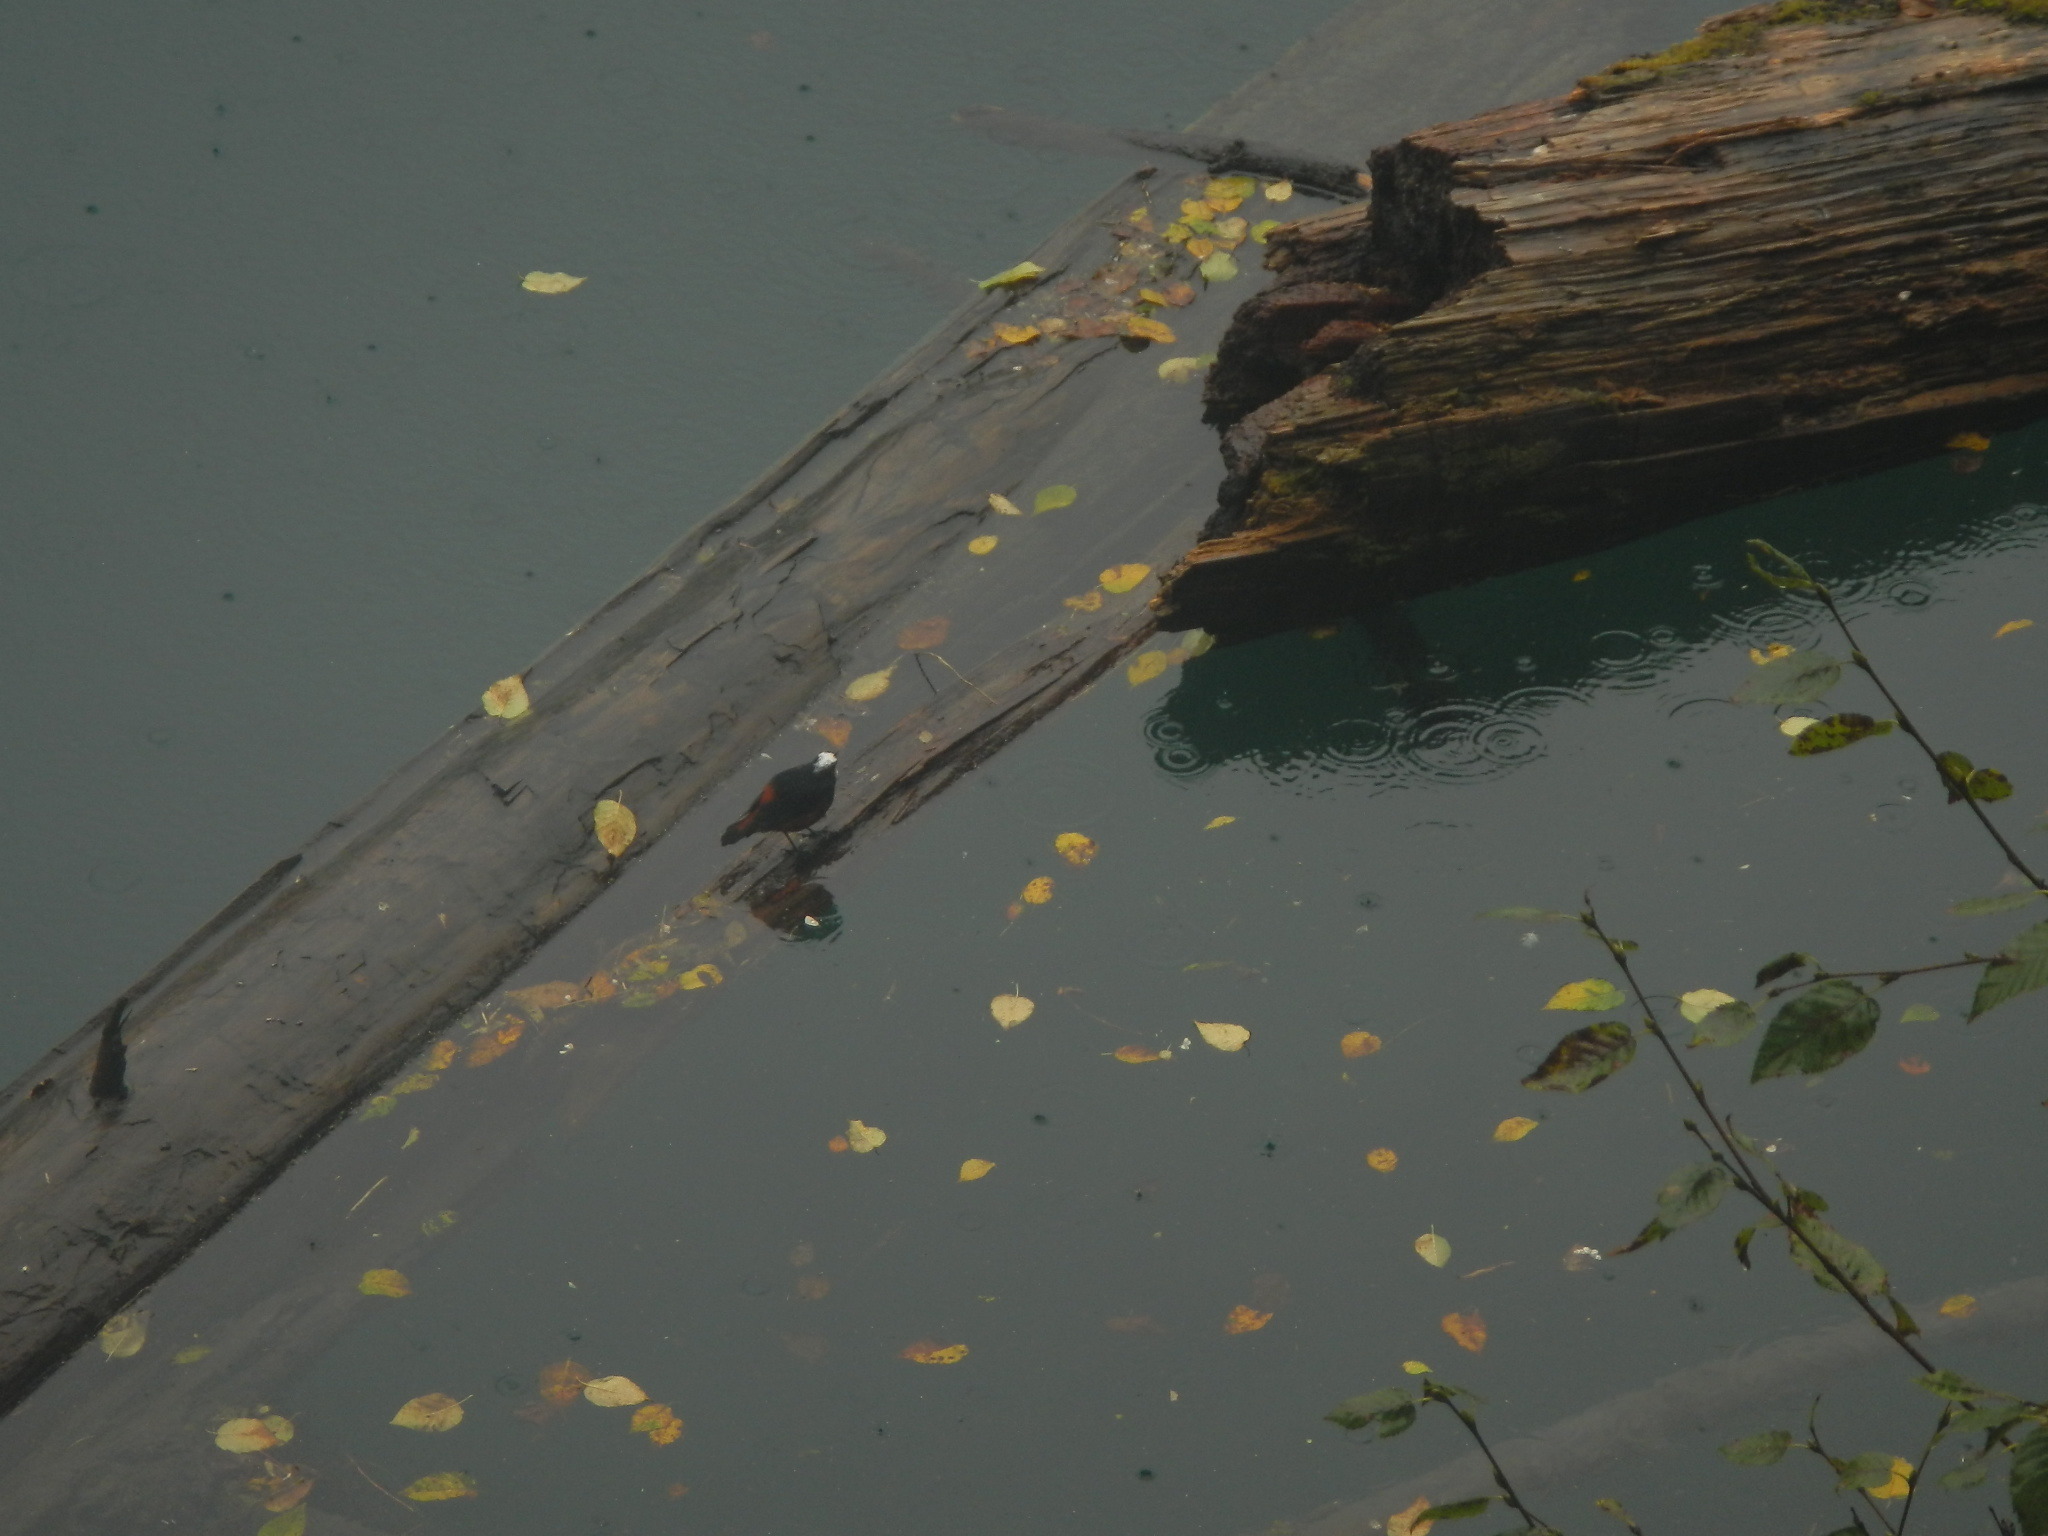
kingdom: Animalia
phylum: Chordata
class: Aves
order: Passeriformes
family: Muscicapidae
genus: Chaimarrornis
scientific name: Chaimarrornis leucocephalus
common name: White-capped redstart
